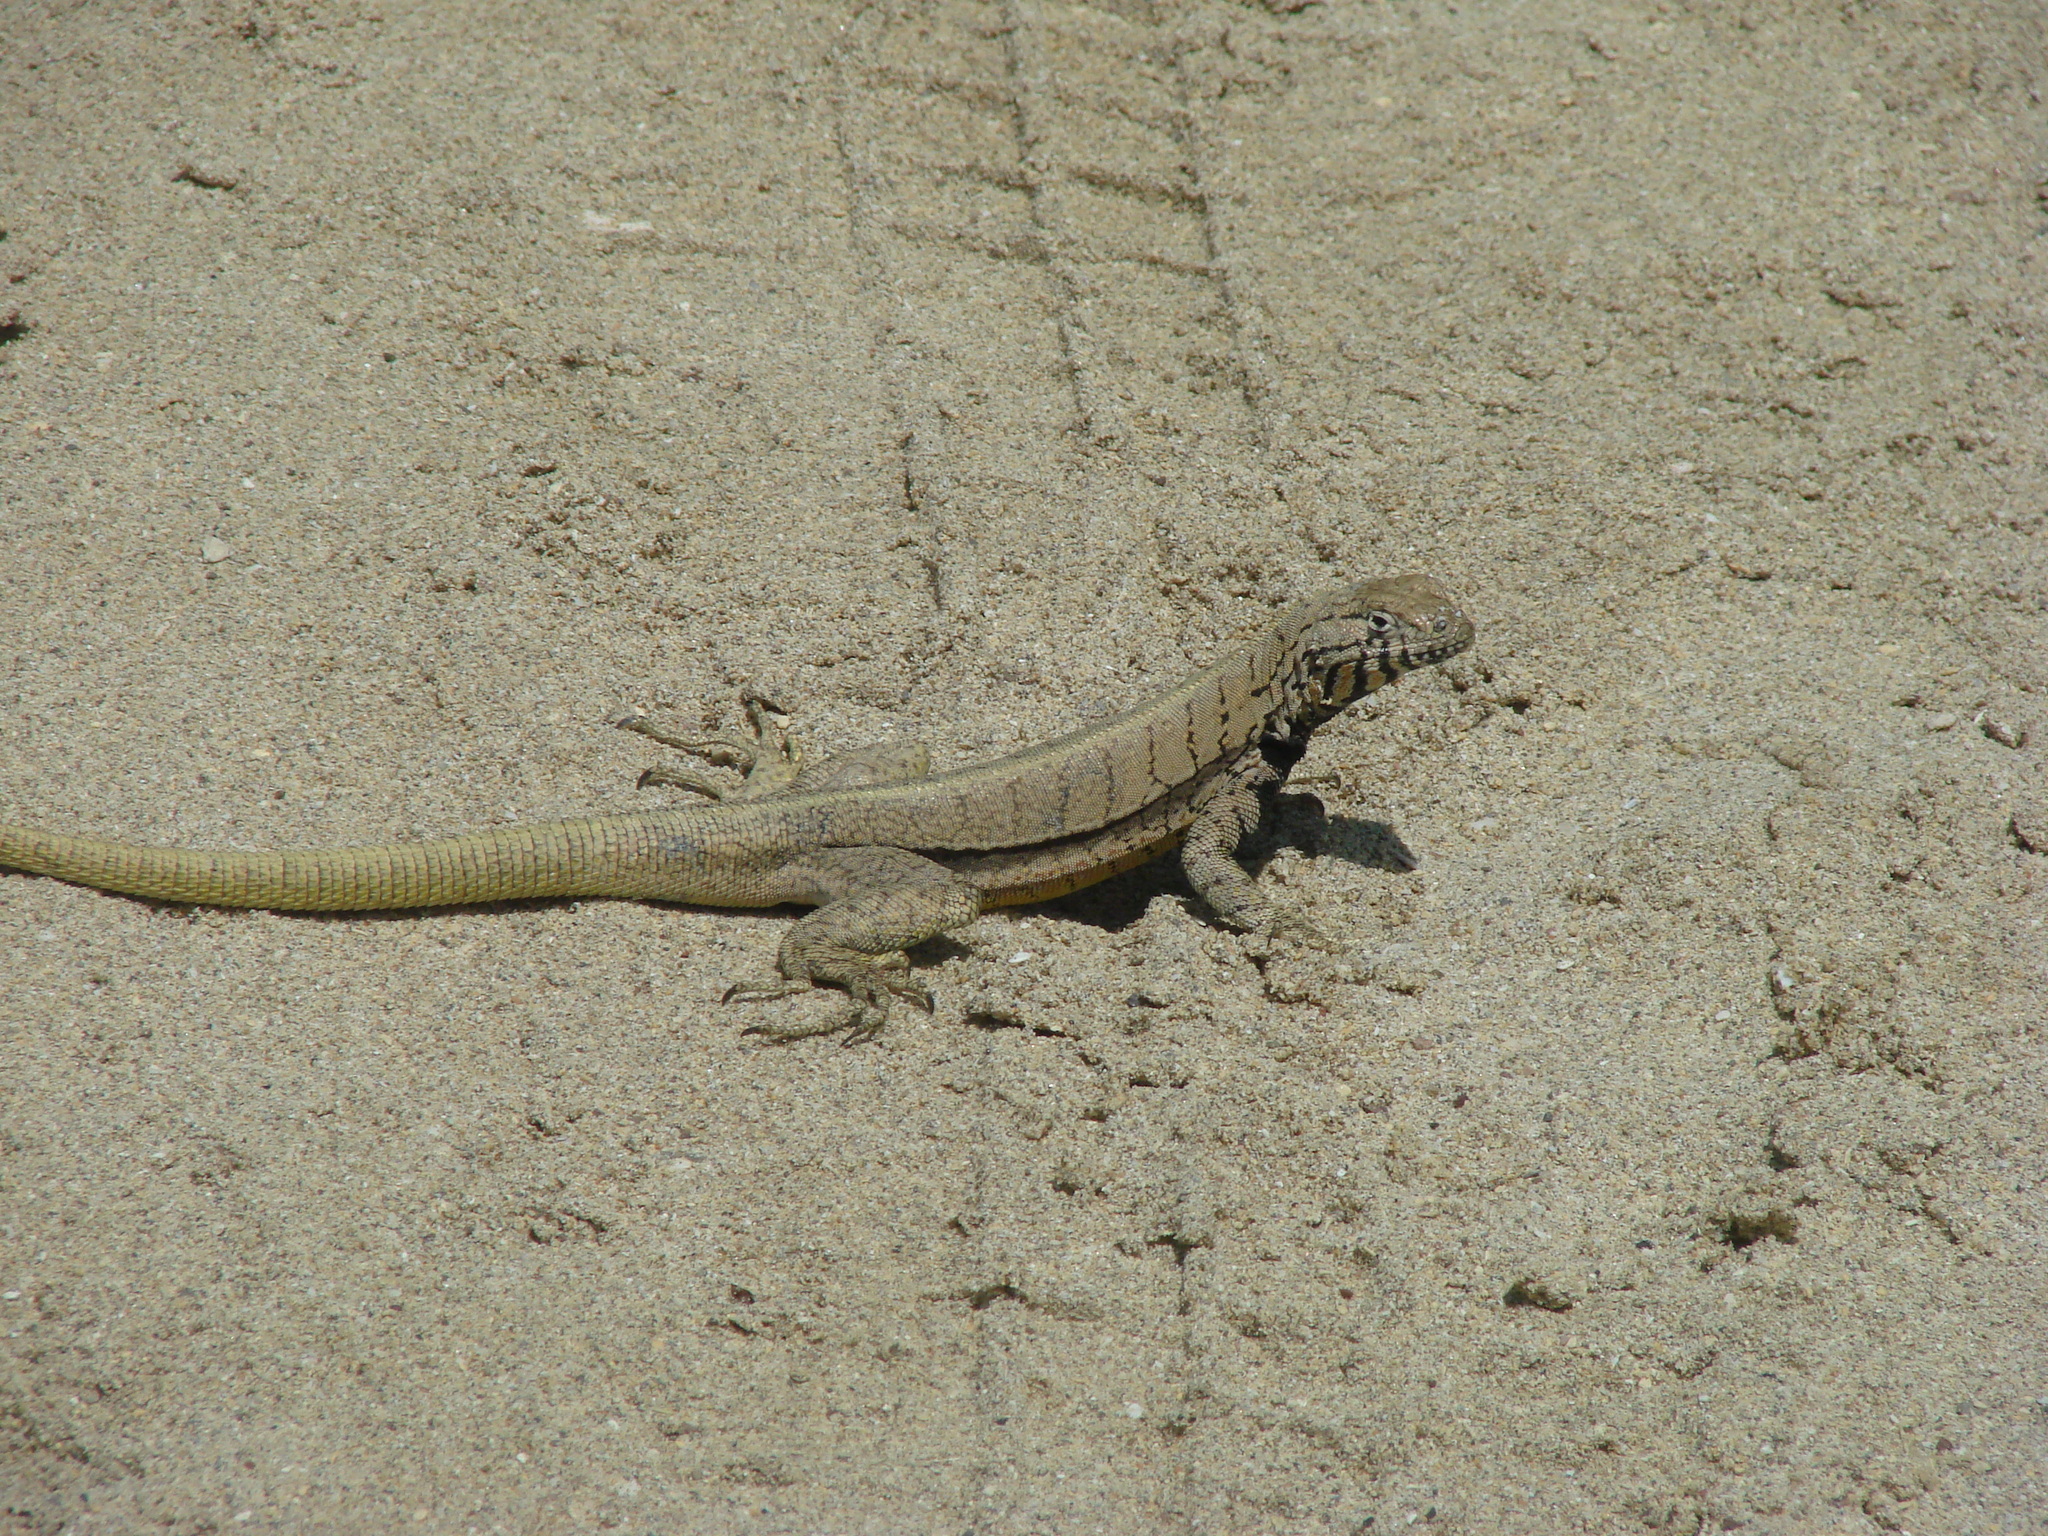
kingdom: Animalia
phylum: Chordata
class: Squamata
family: Tropiduridae
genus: Microlophus
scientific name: Microlophus peruvianus
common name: Peru pacific iguana
